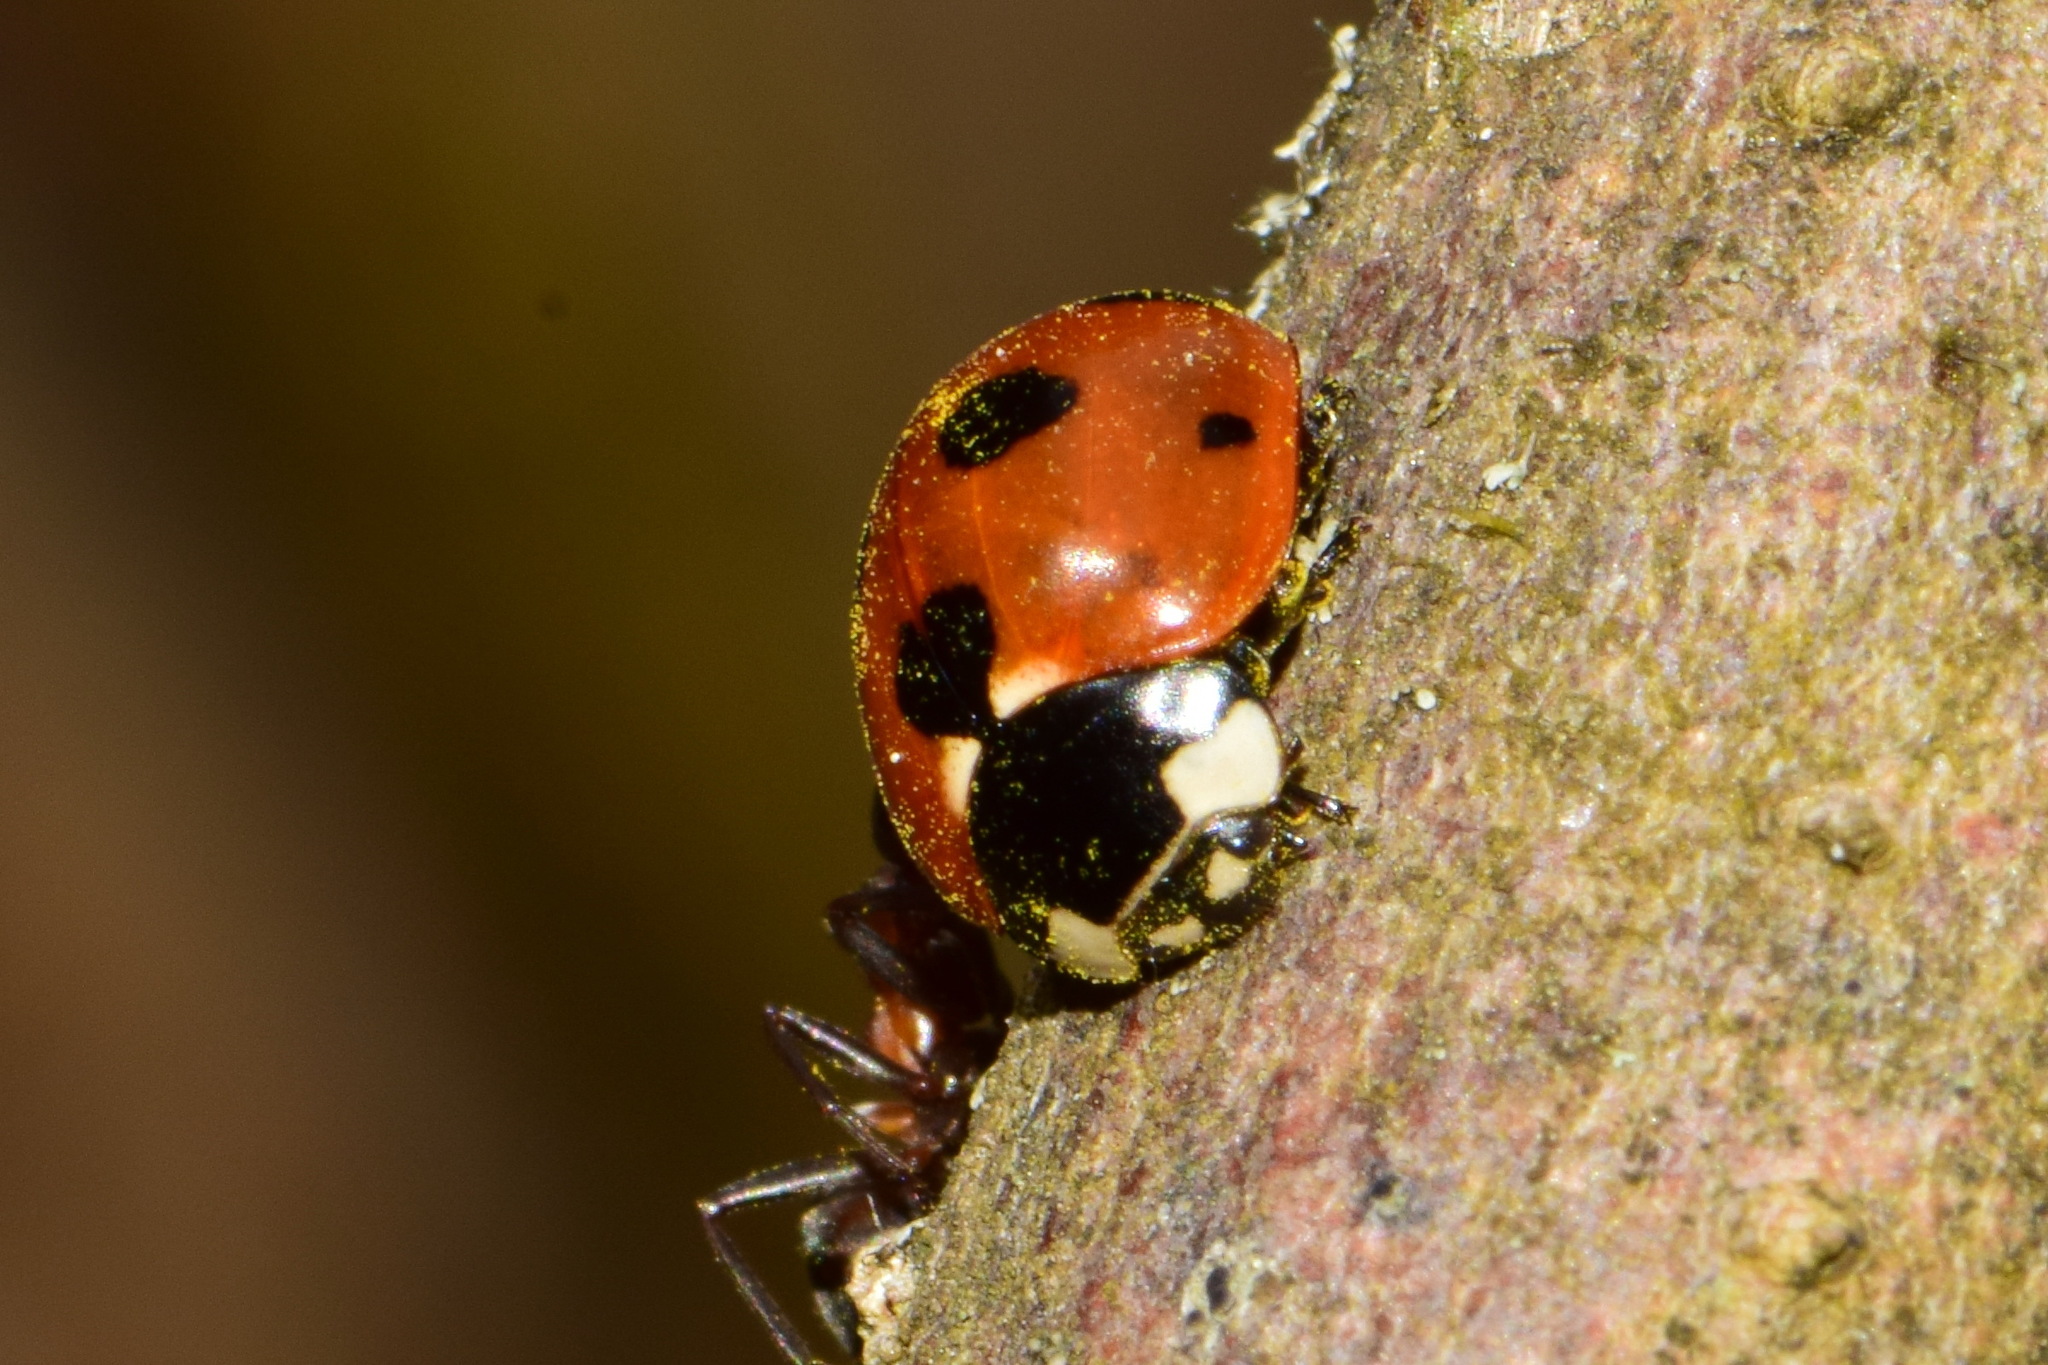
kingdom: Animalia
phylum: Arthropoda
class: Insecta
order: Coleoptera
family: Coccinellidae
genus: Coccinella
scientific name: Coccinella magnifica
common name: Scarce 7-spot ladybird
